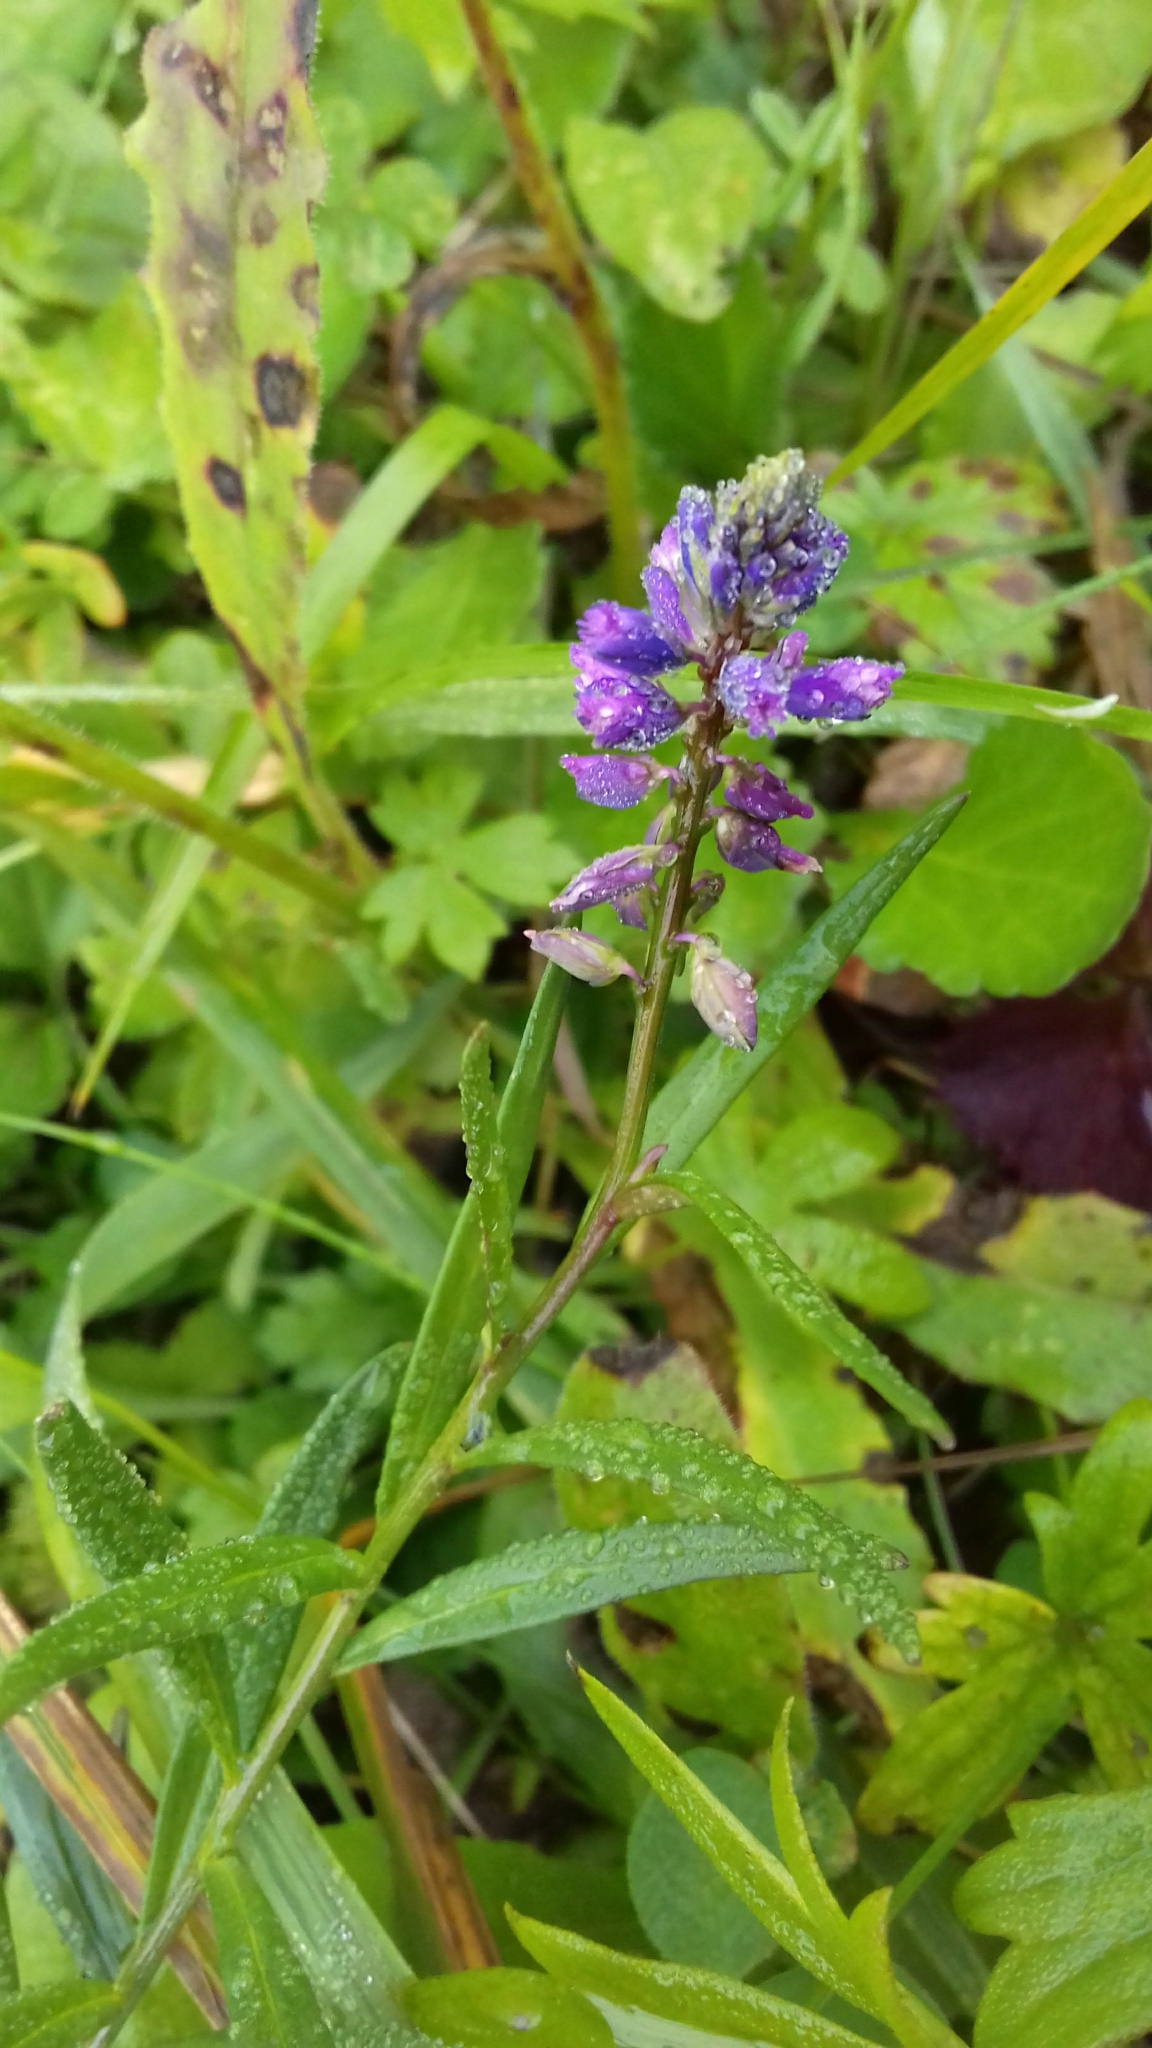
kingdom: Plantae
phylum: Tracheophyta
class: Magnoliopsida
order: Fabales
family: Polygalaceae
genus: Polygala
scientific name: Polygala comosa
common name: Tufted milkwort
